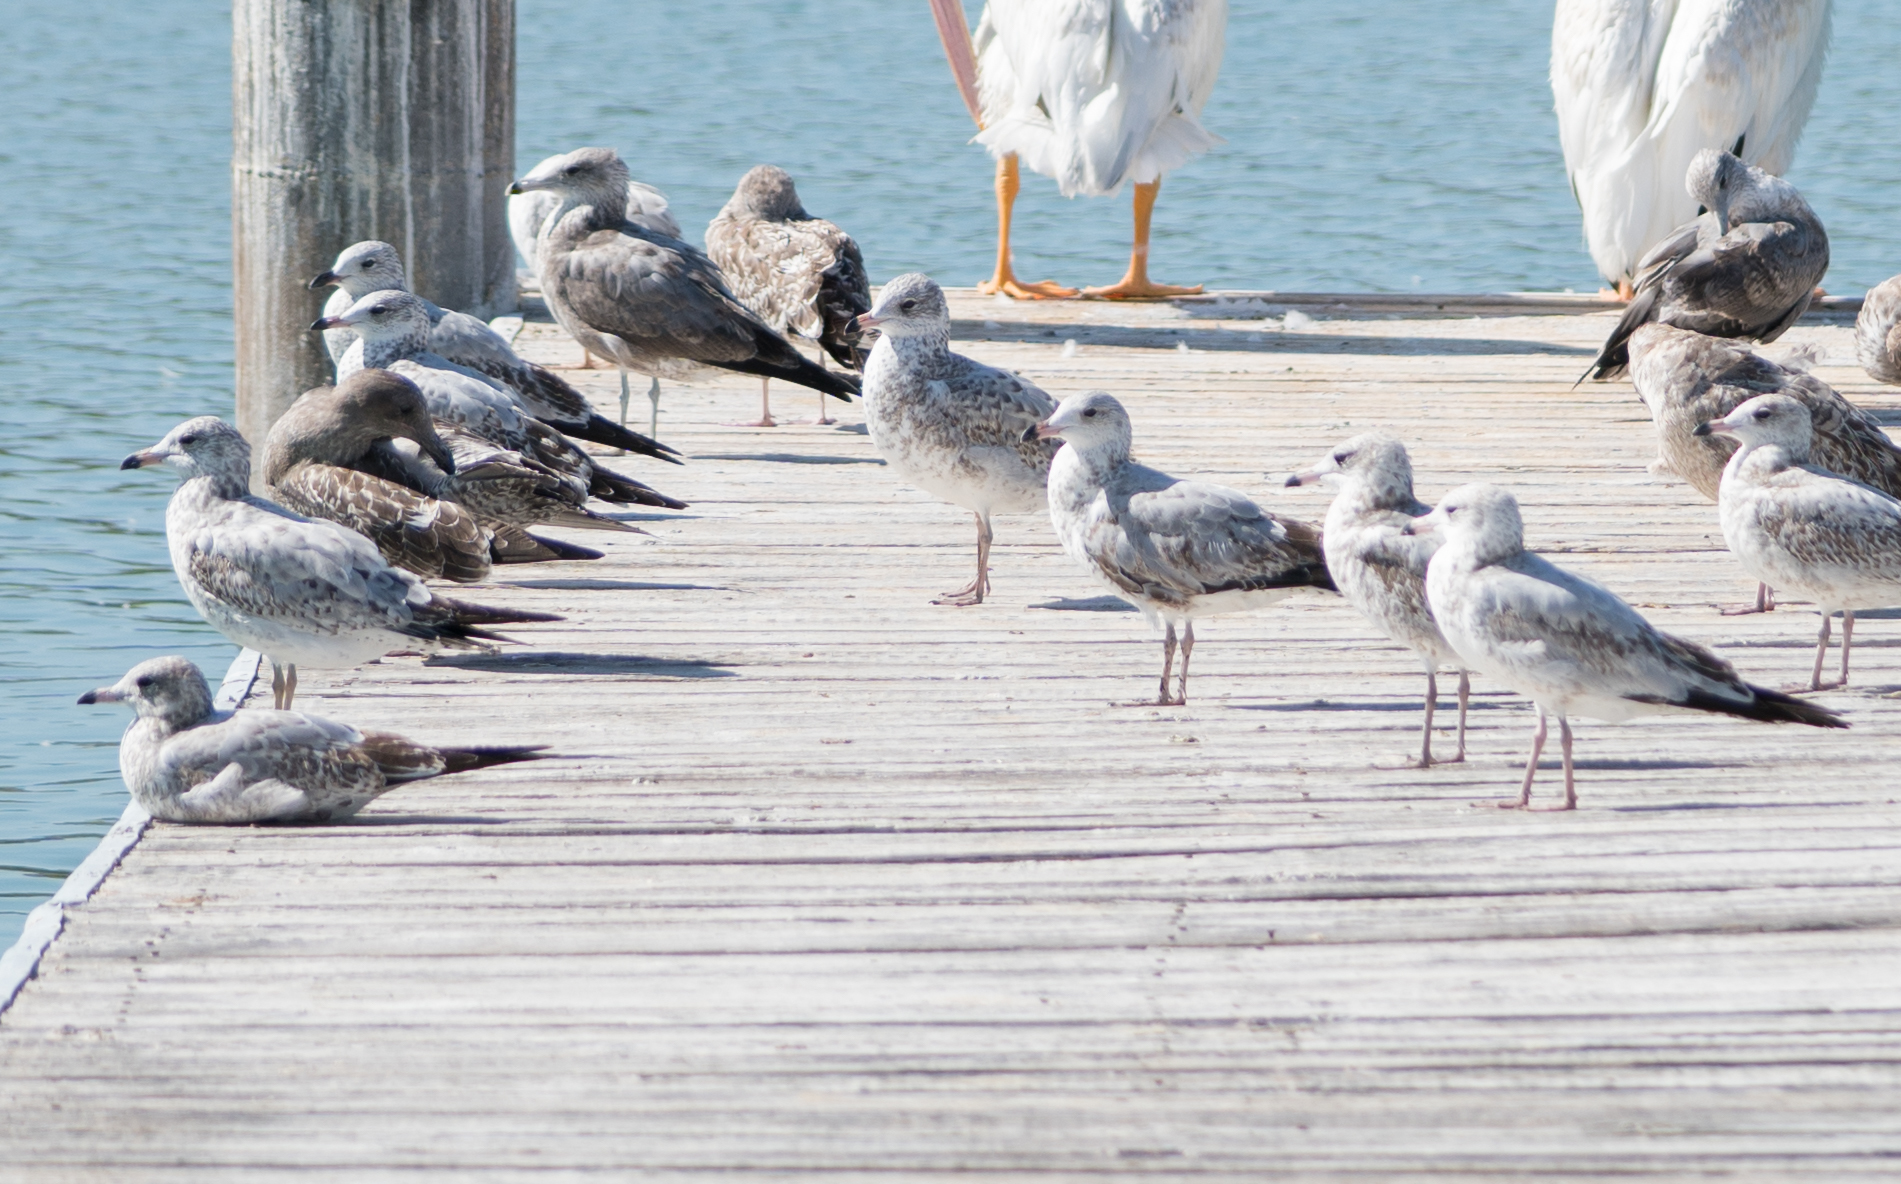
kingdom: Animalia
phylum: Chordata
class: Aves
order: Charadriiformes
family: Laridae
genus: Larus
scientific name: Larus californicus
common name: California gull
